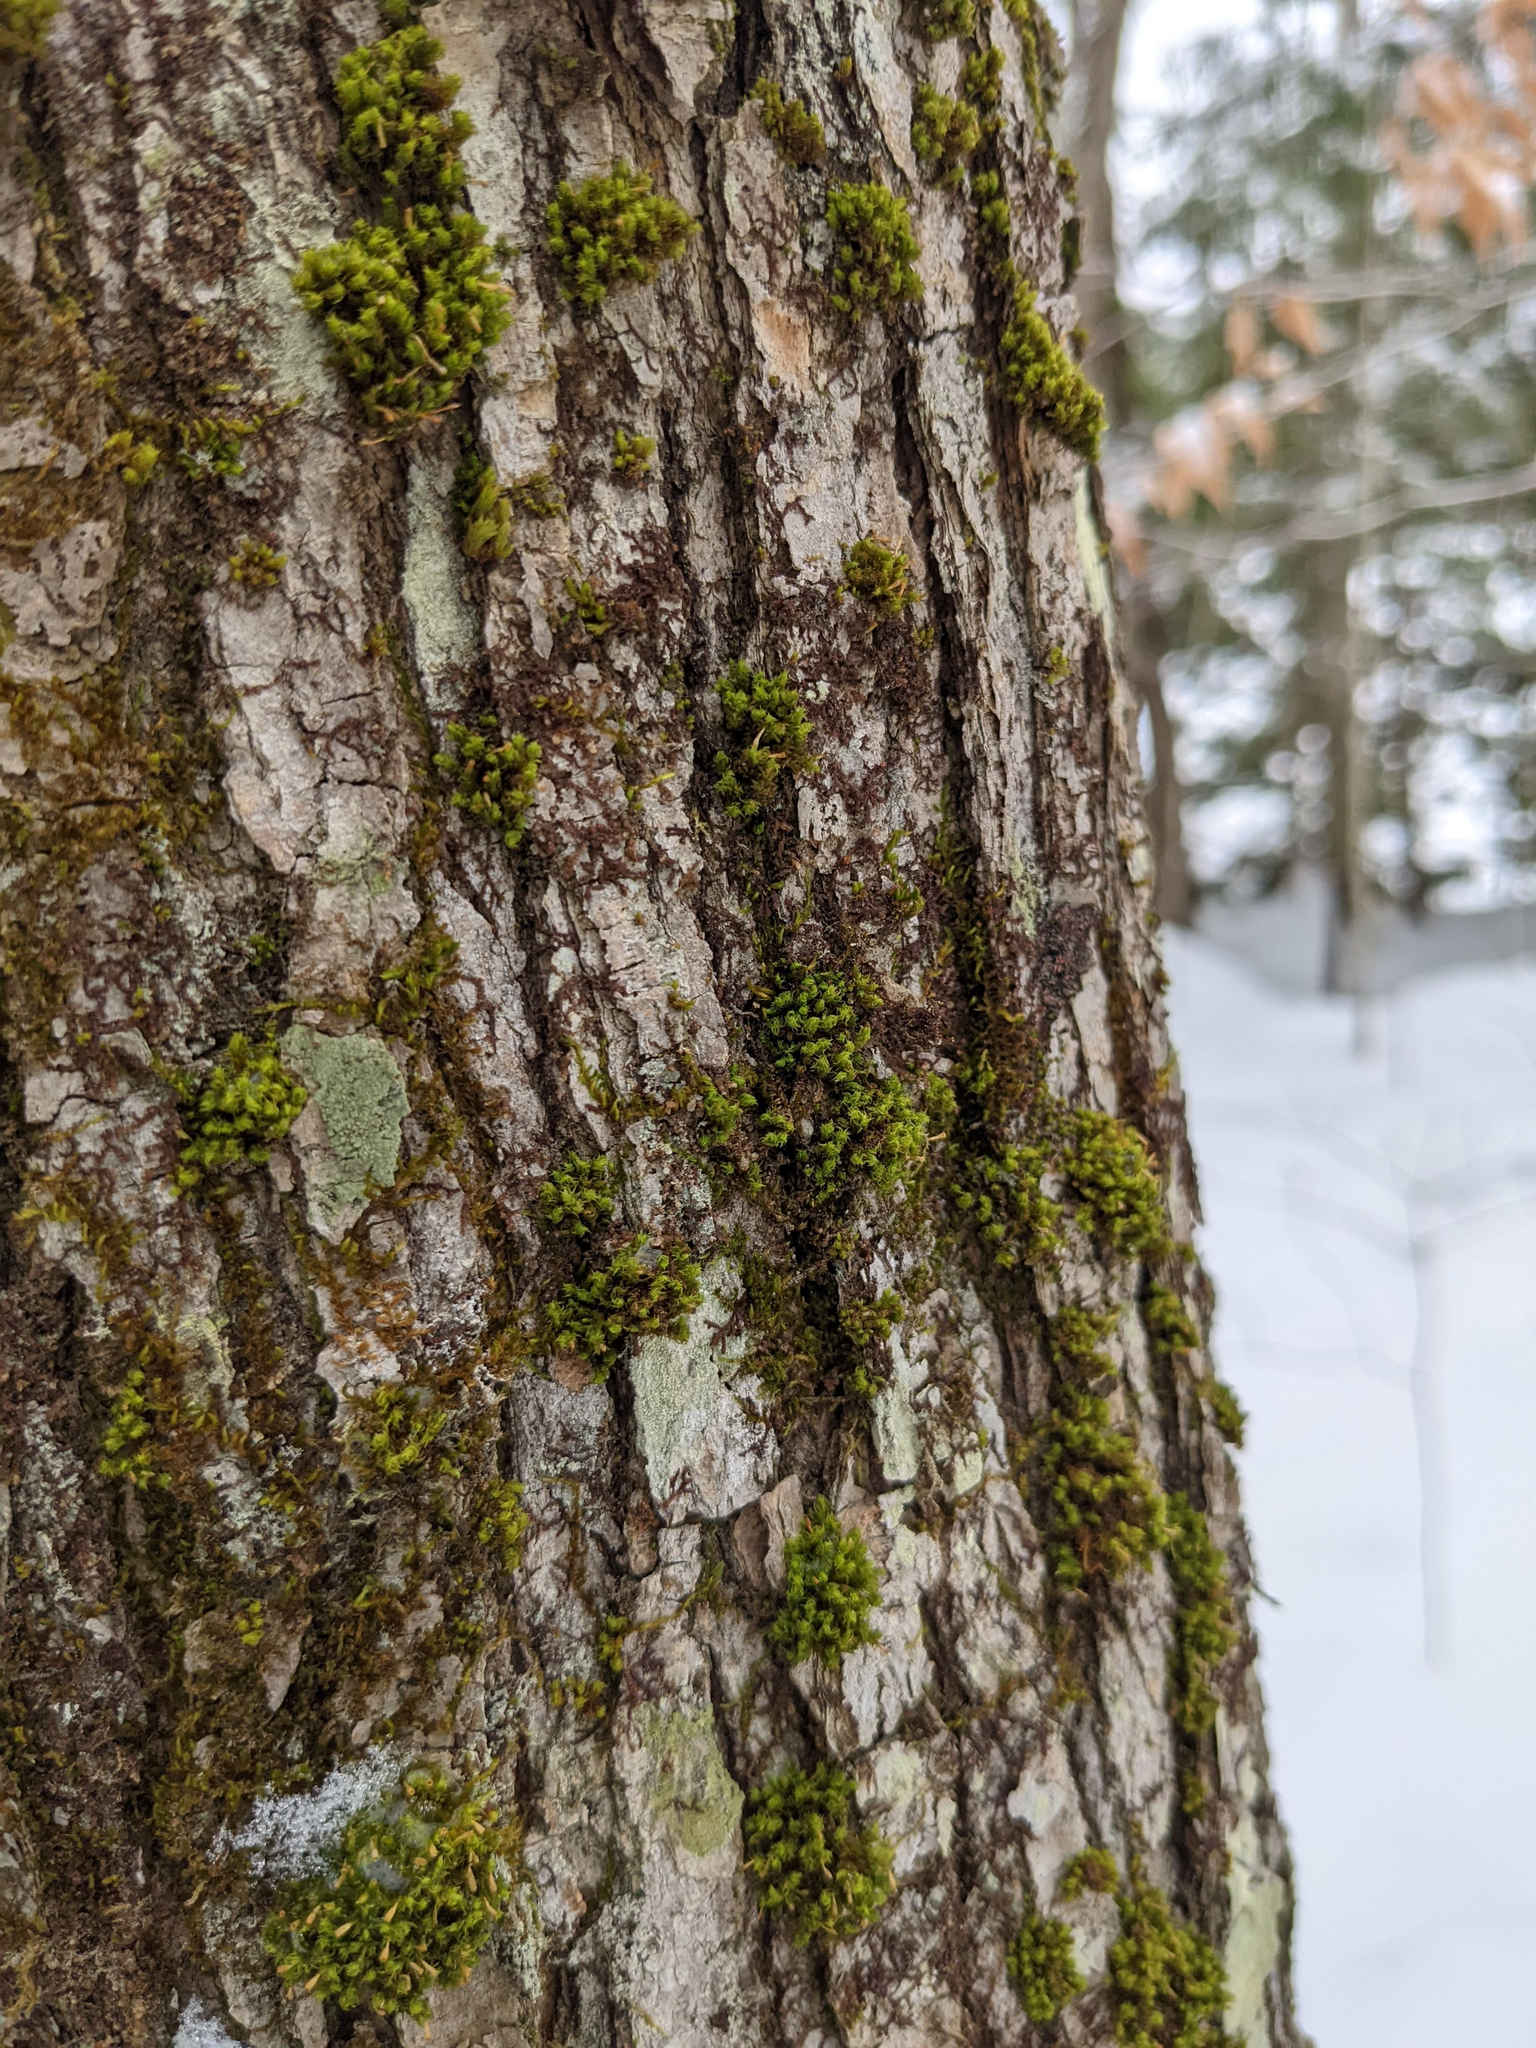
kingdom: Plantae
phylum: Bryophyta
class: Bryopsida
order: Orthotrichales
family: Orthotrichaceae
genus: Ulota
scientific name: Ulota crispa
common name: Crisped pincushion moss
